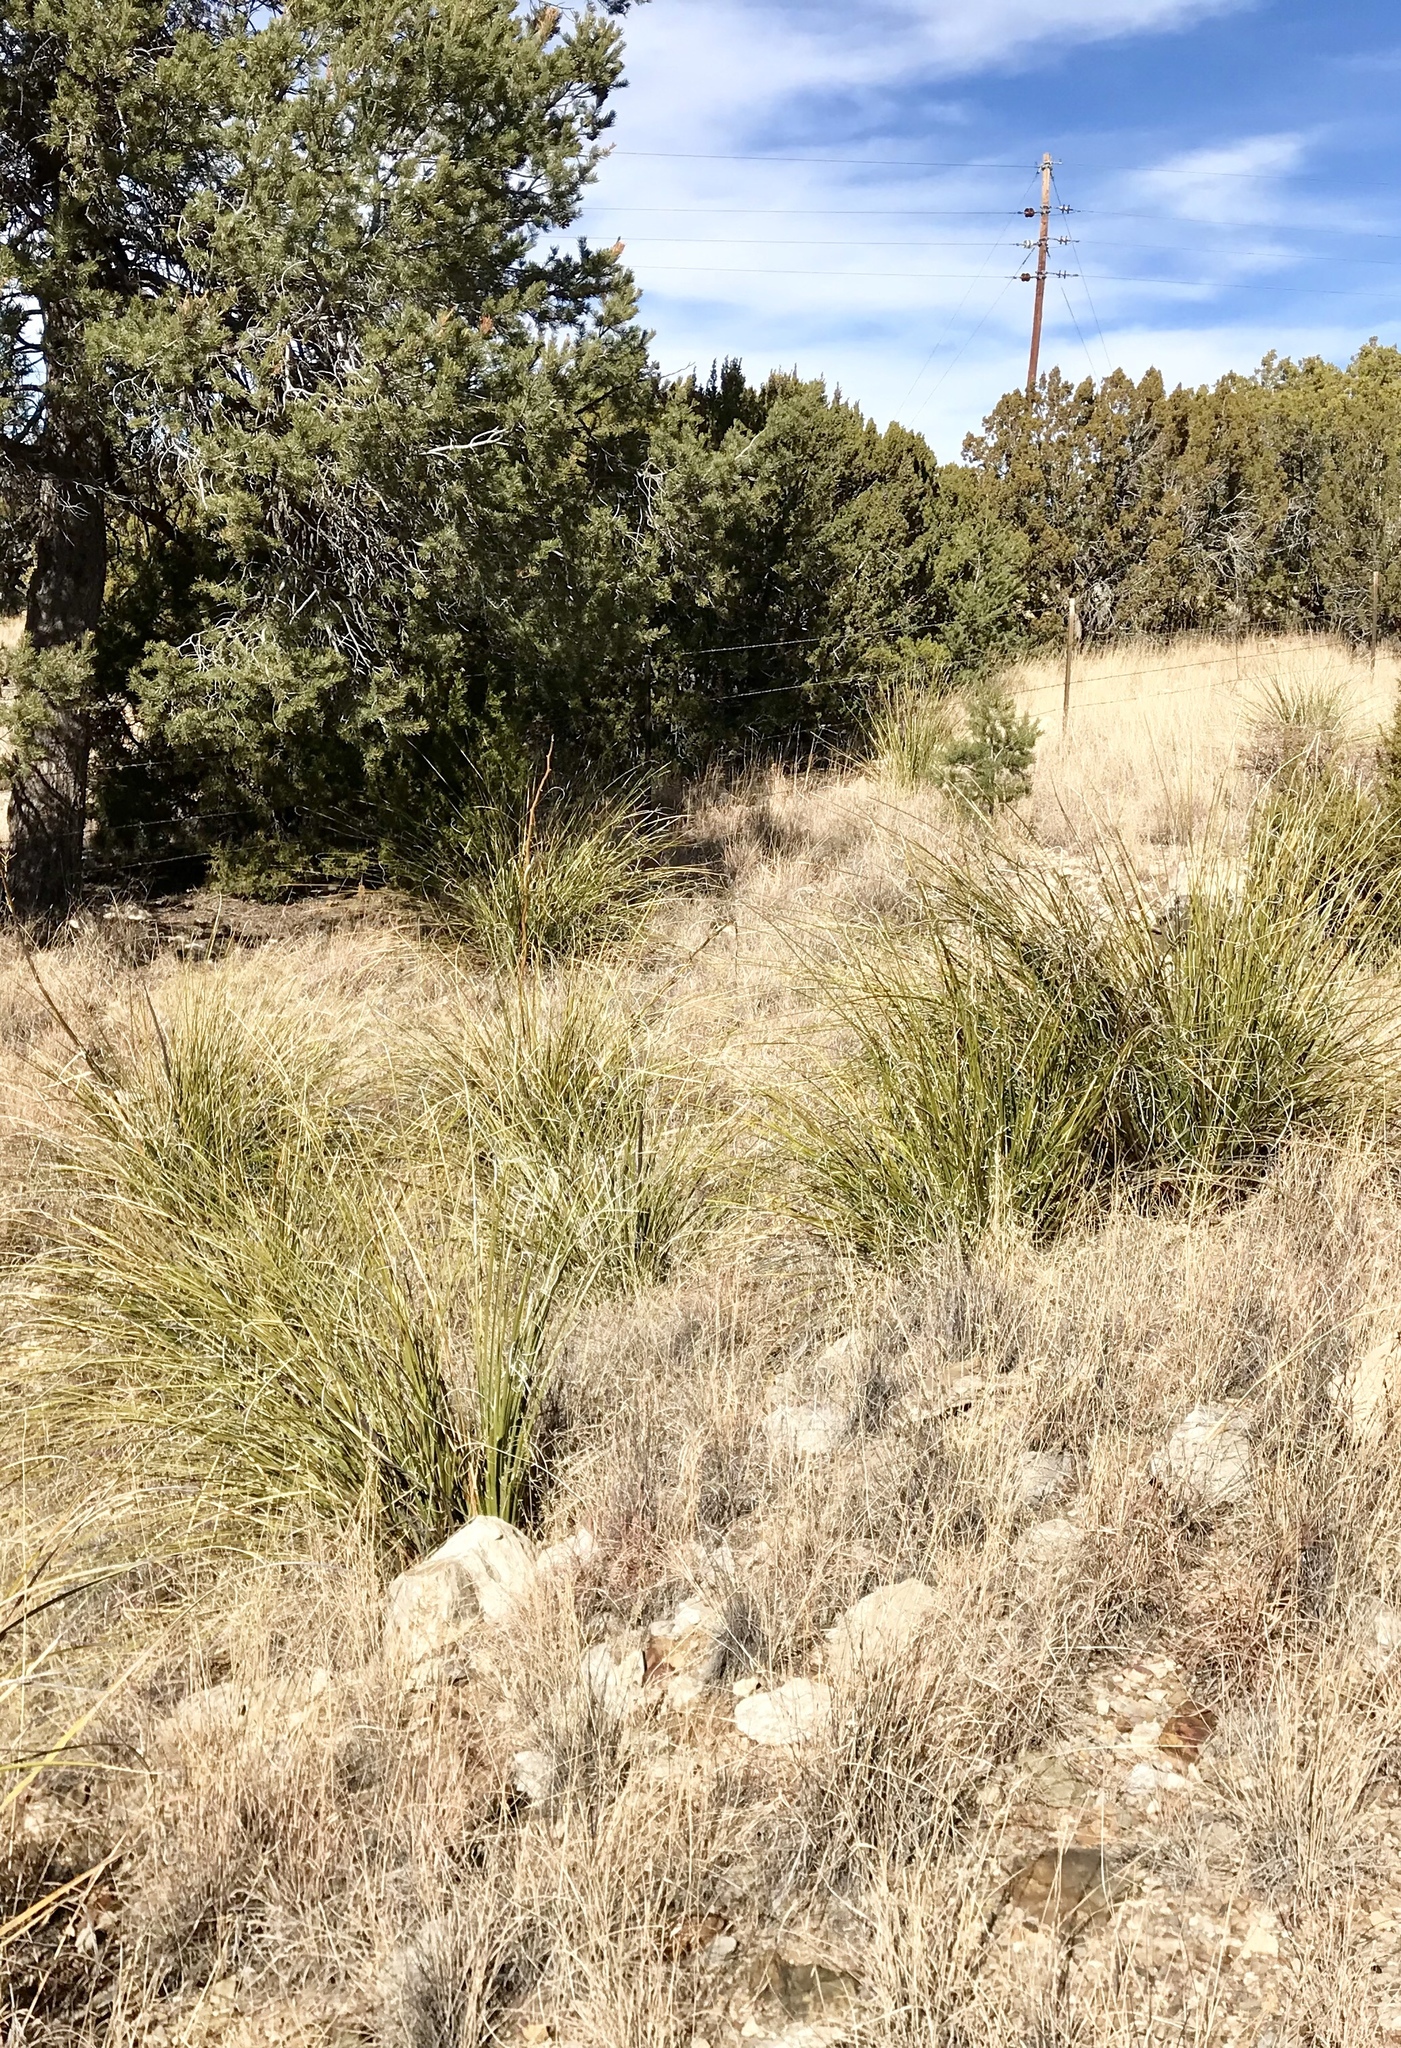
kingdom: Plantae
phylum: Tracheophyta
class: Liliopsida
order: Asparagales
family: Asparagaceae
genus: Nolina
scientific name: Nolina microcarpa
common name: Bear-grass
